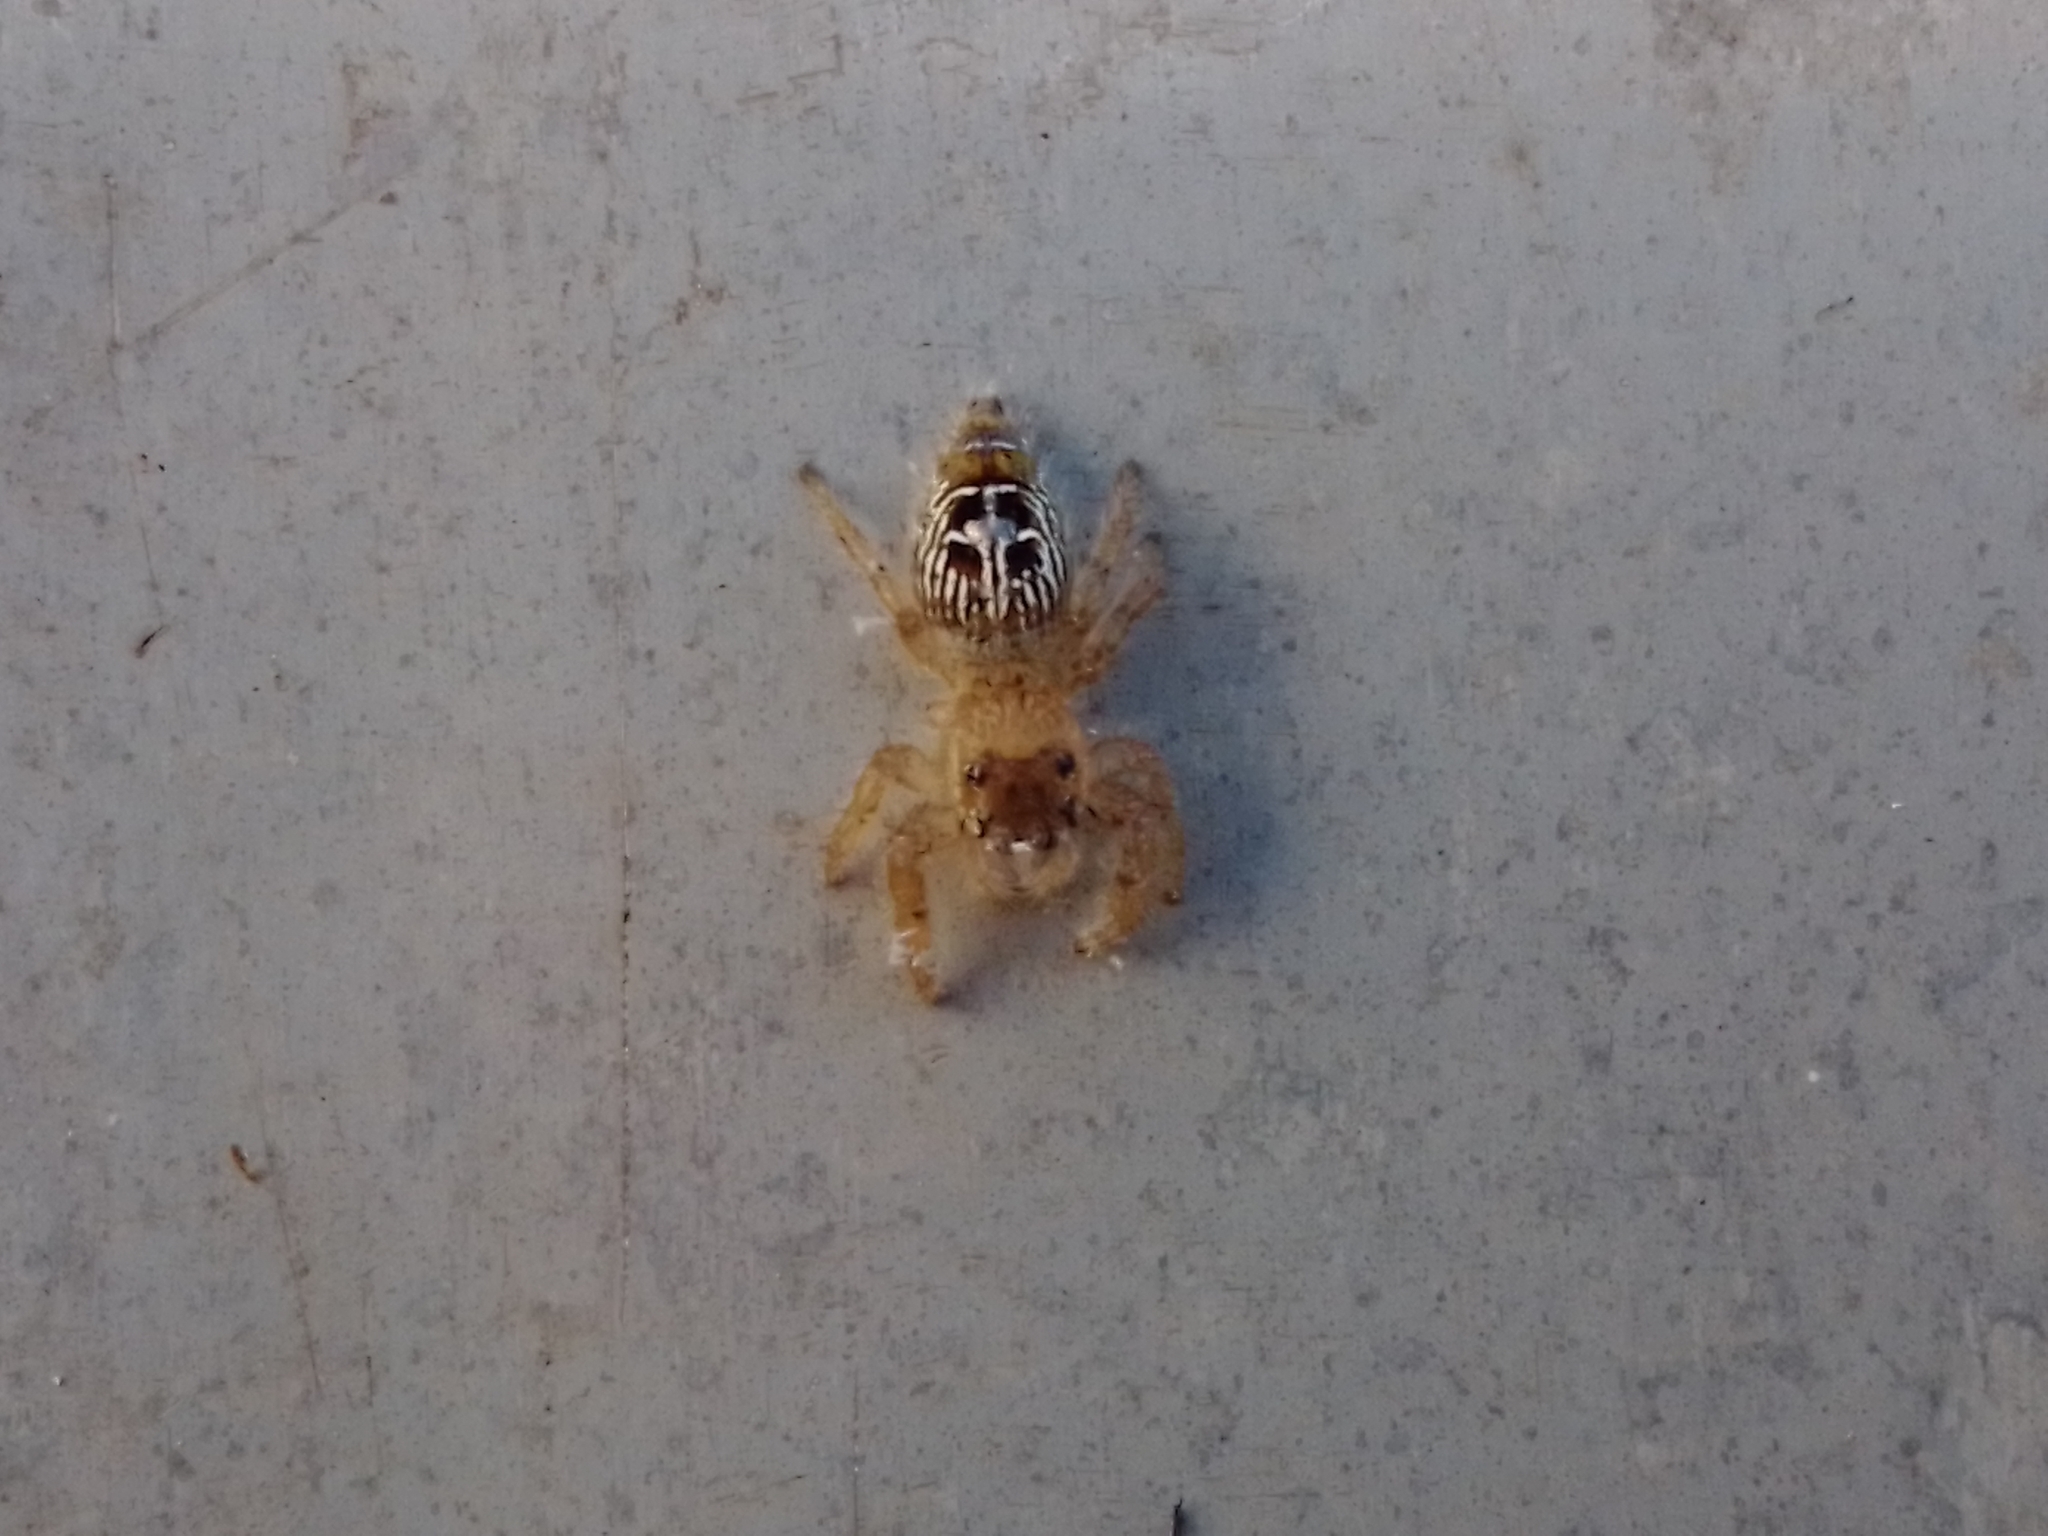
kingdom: Animalia
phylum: Arthropoda
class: Arachnida
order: Araneae
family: Salticidae
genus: Thyene
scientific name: Thyene imperialis
